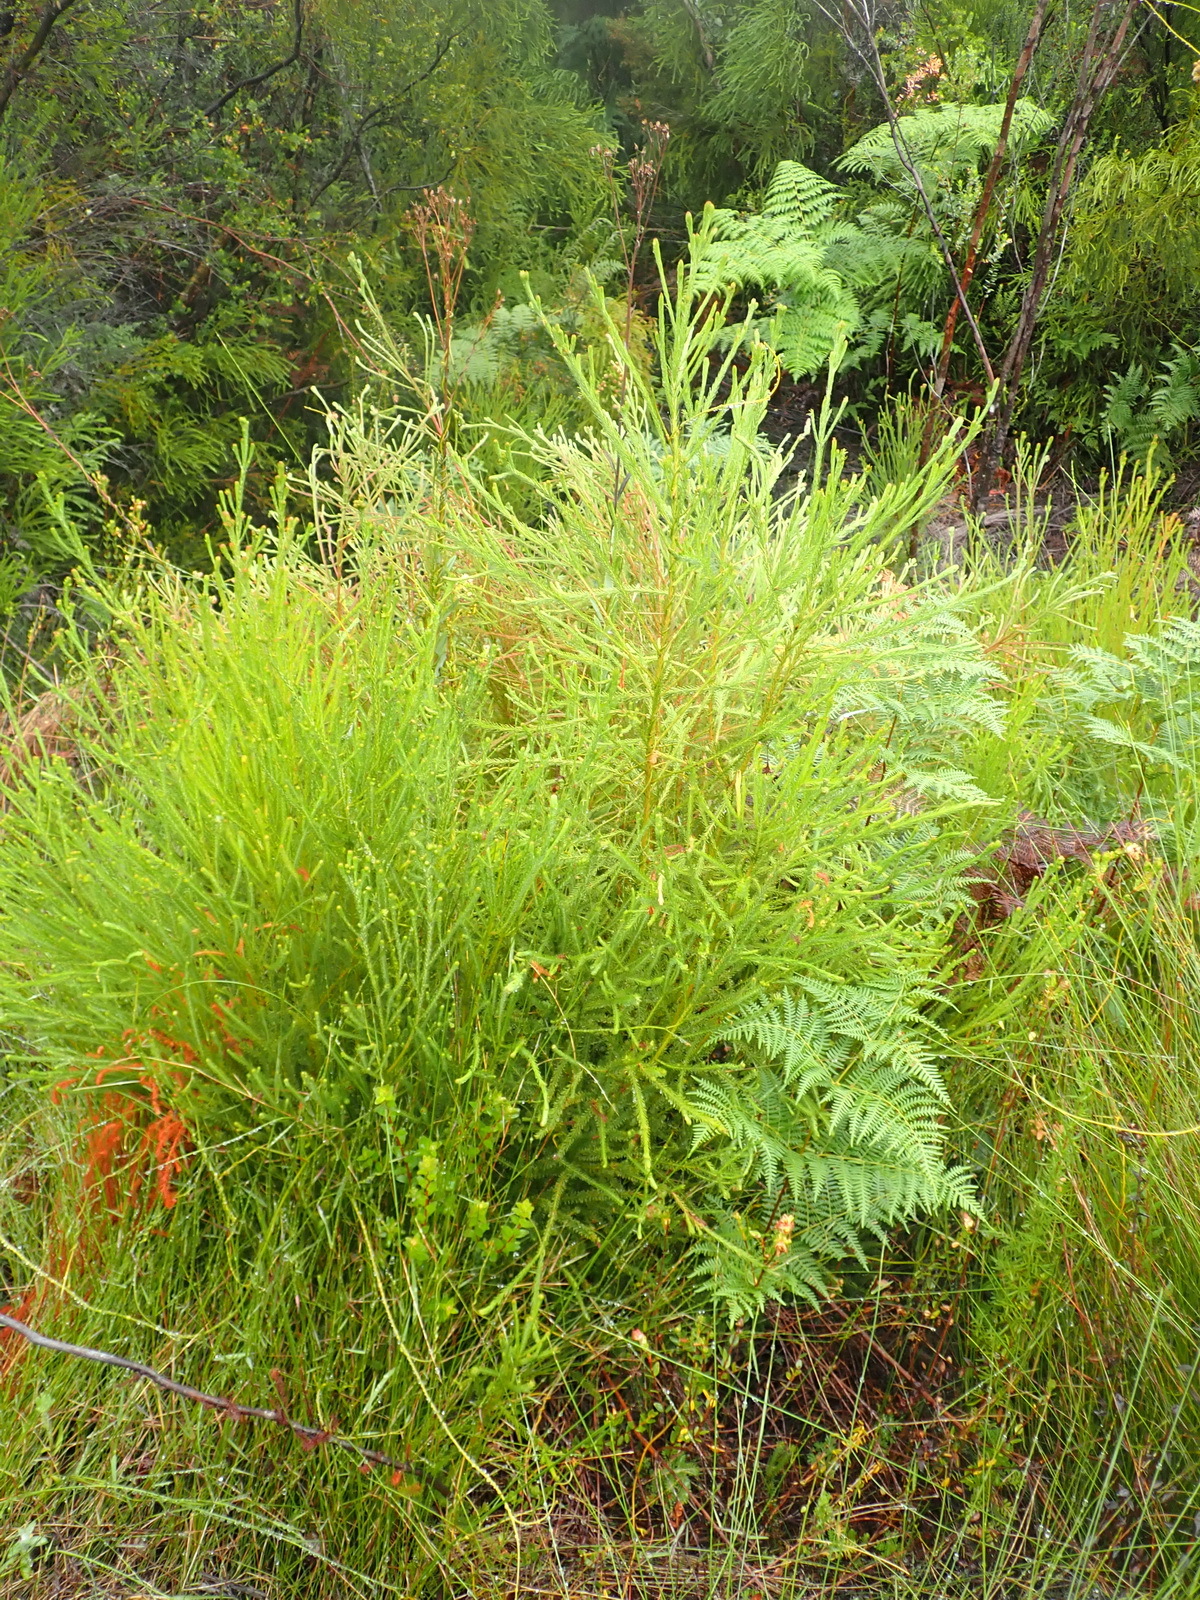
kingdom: Plantae
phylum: Tracheophyta
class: Magnoliopsida
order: Bruniales
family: Bruniaceae
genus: Berzelia
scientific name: Berzelia intermedia
